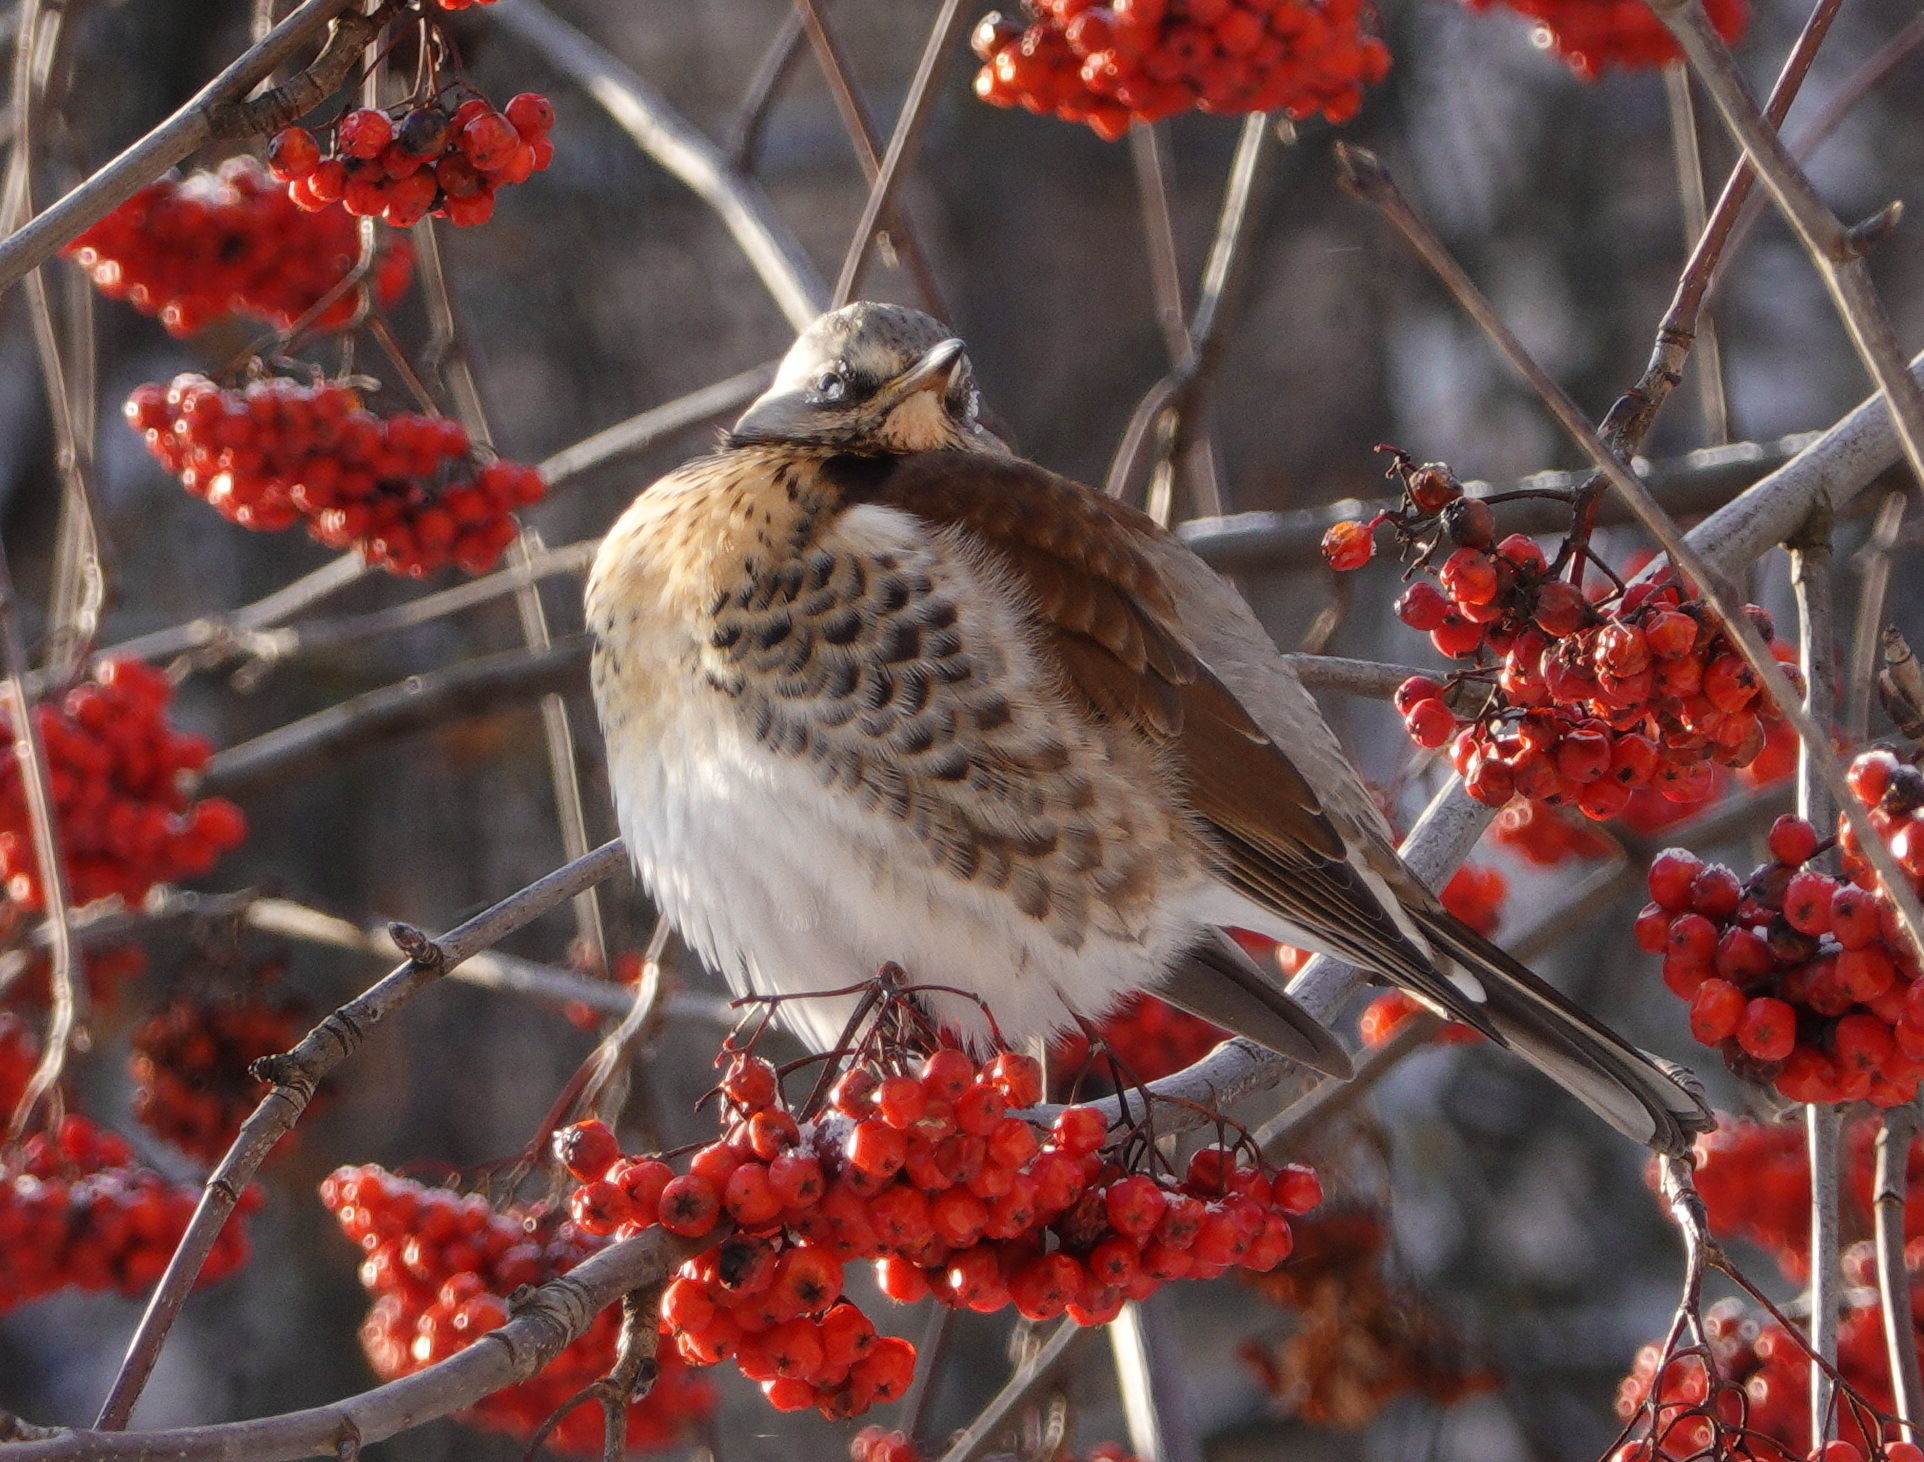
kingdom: Animalia
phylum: Chordata
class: Aves
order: Passeriformes
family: Turdidae
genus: Turdus
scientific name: Turdus pilaris
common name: Fieldfare
